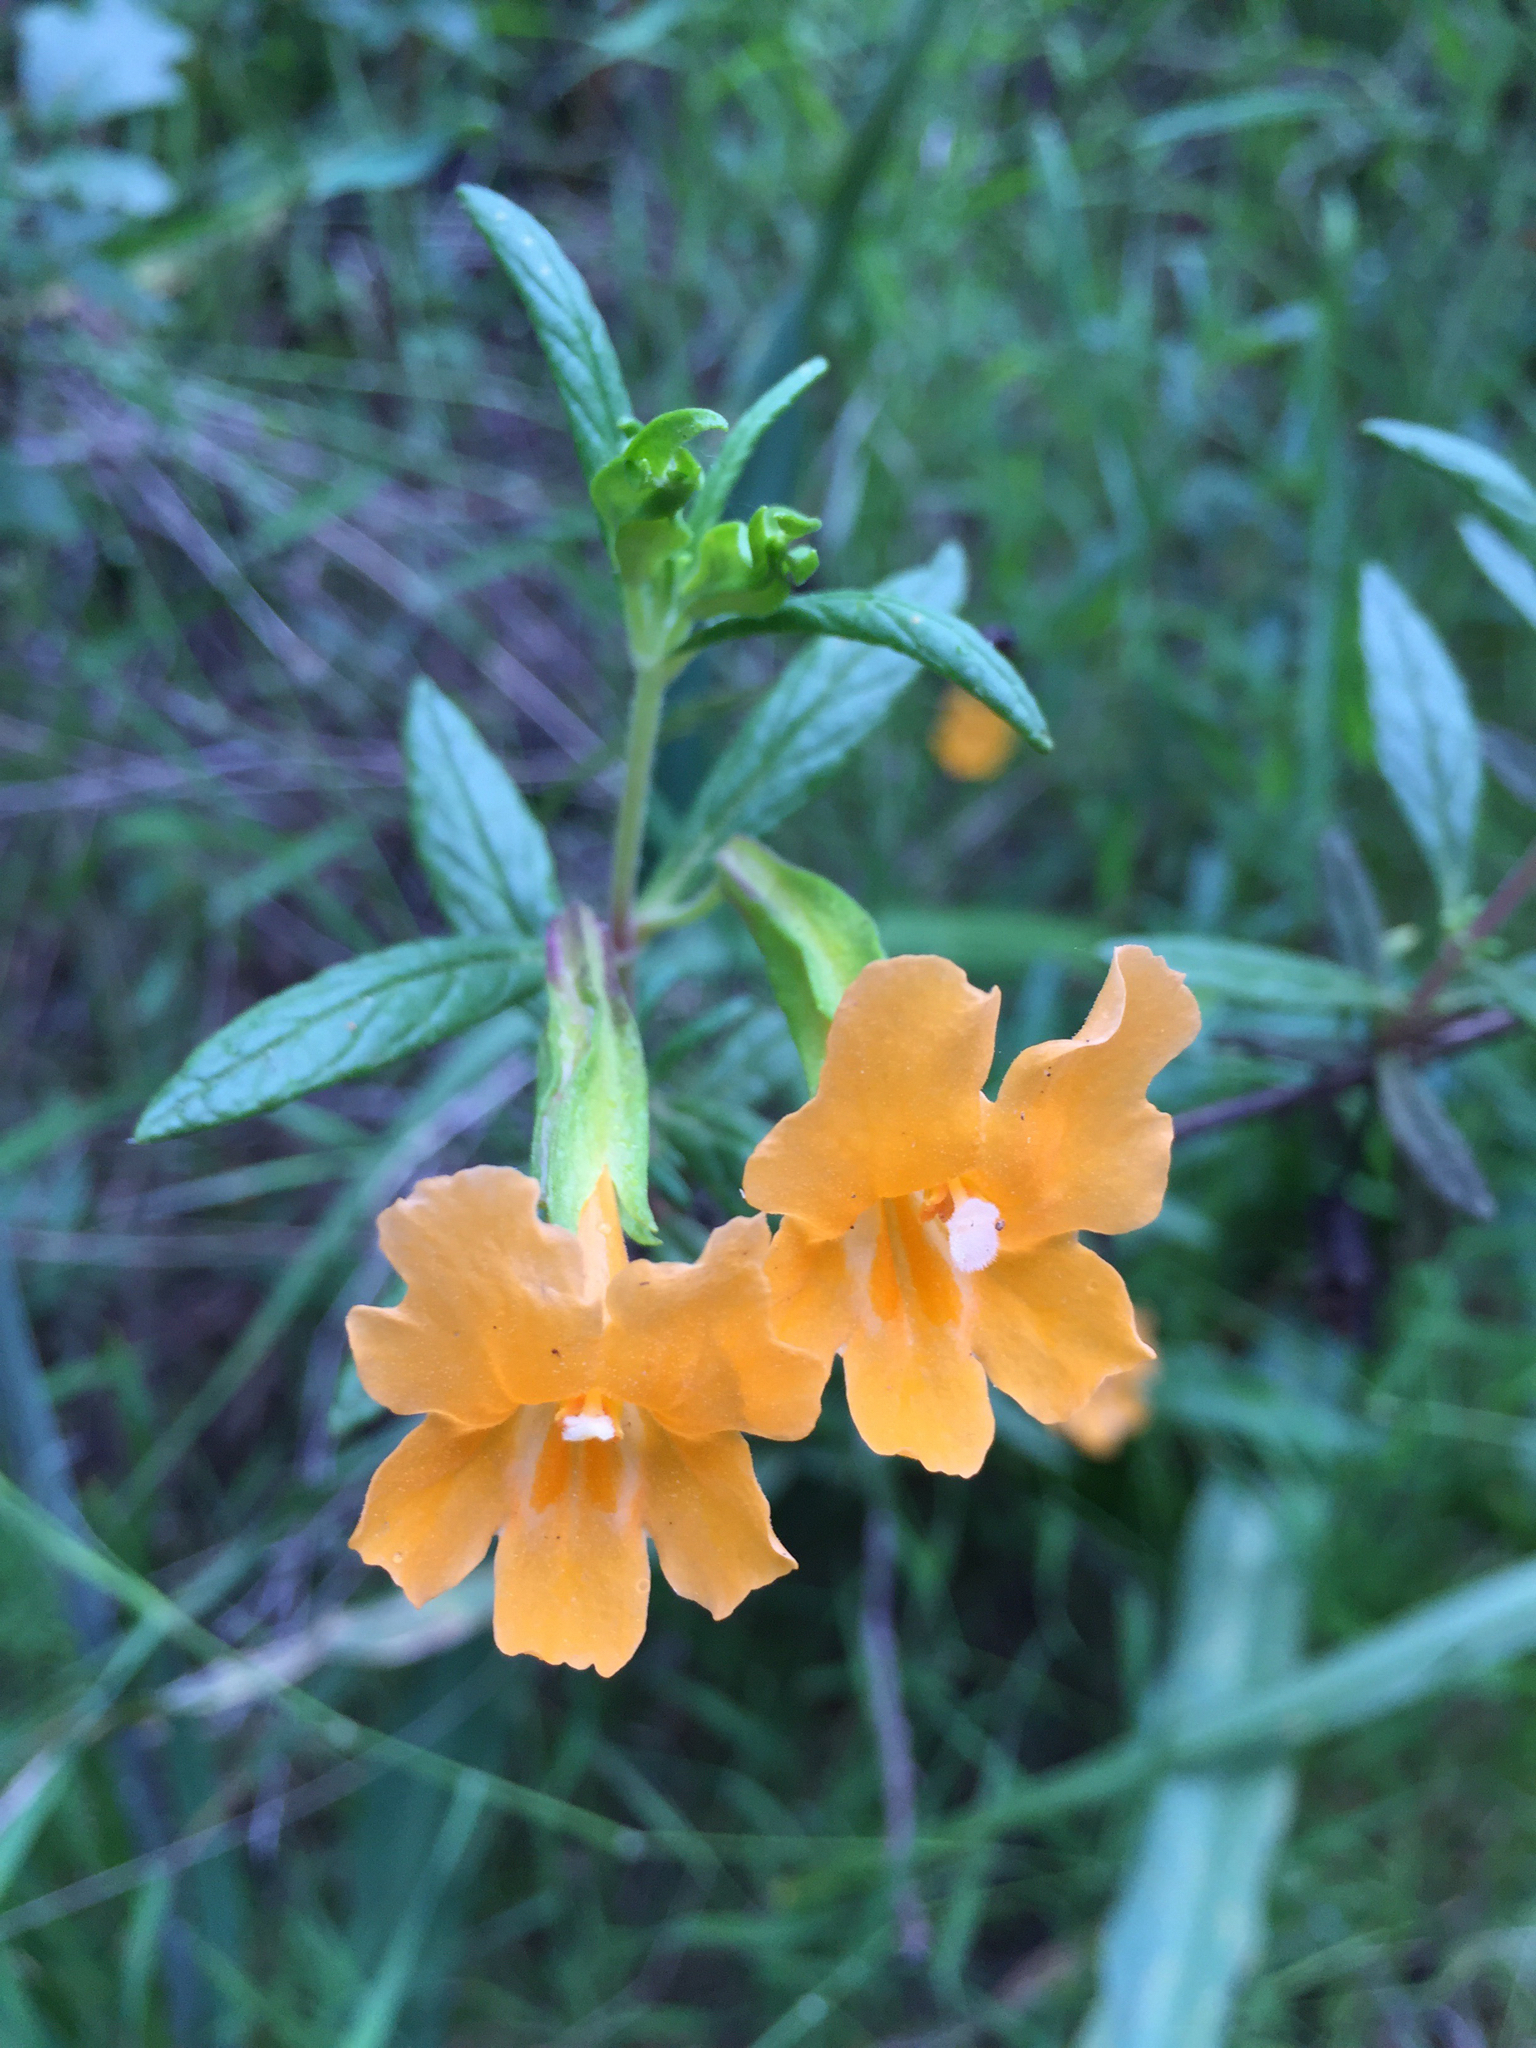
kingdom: Plantae
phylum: Tracheophyta
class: Magnoliopsida
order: Lamiales
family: Phrymaceae
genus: Diplacus
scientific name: Diplacus aurantiacus
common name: Bush monkey-flower
